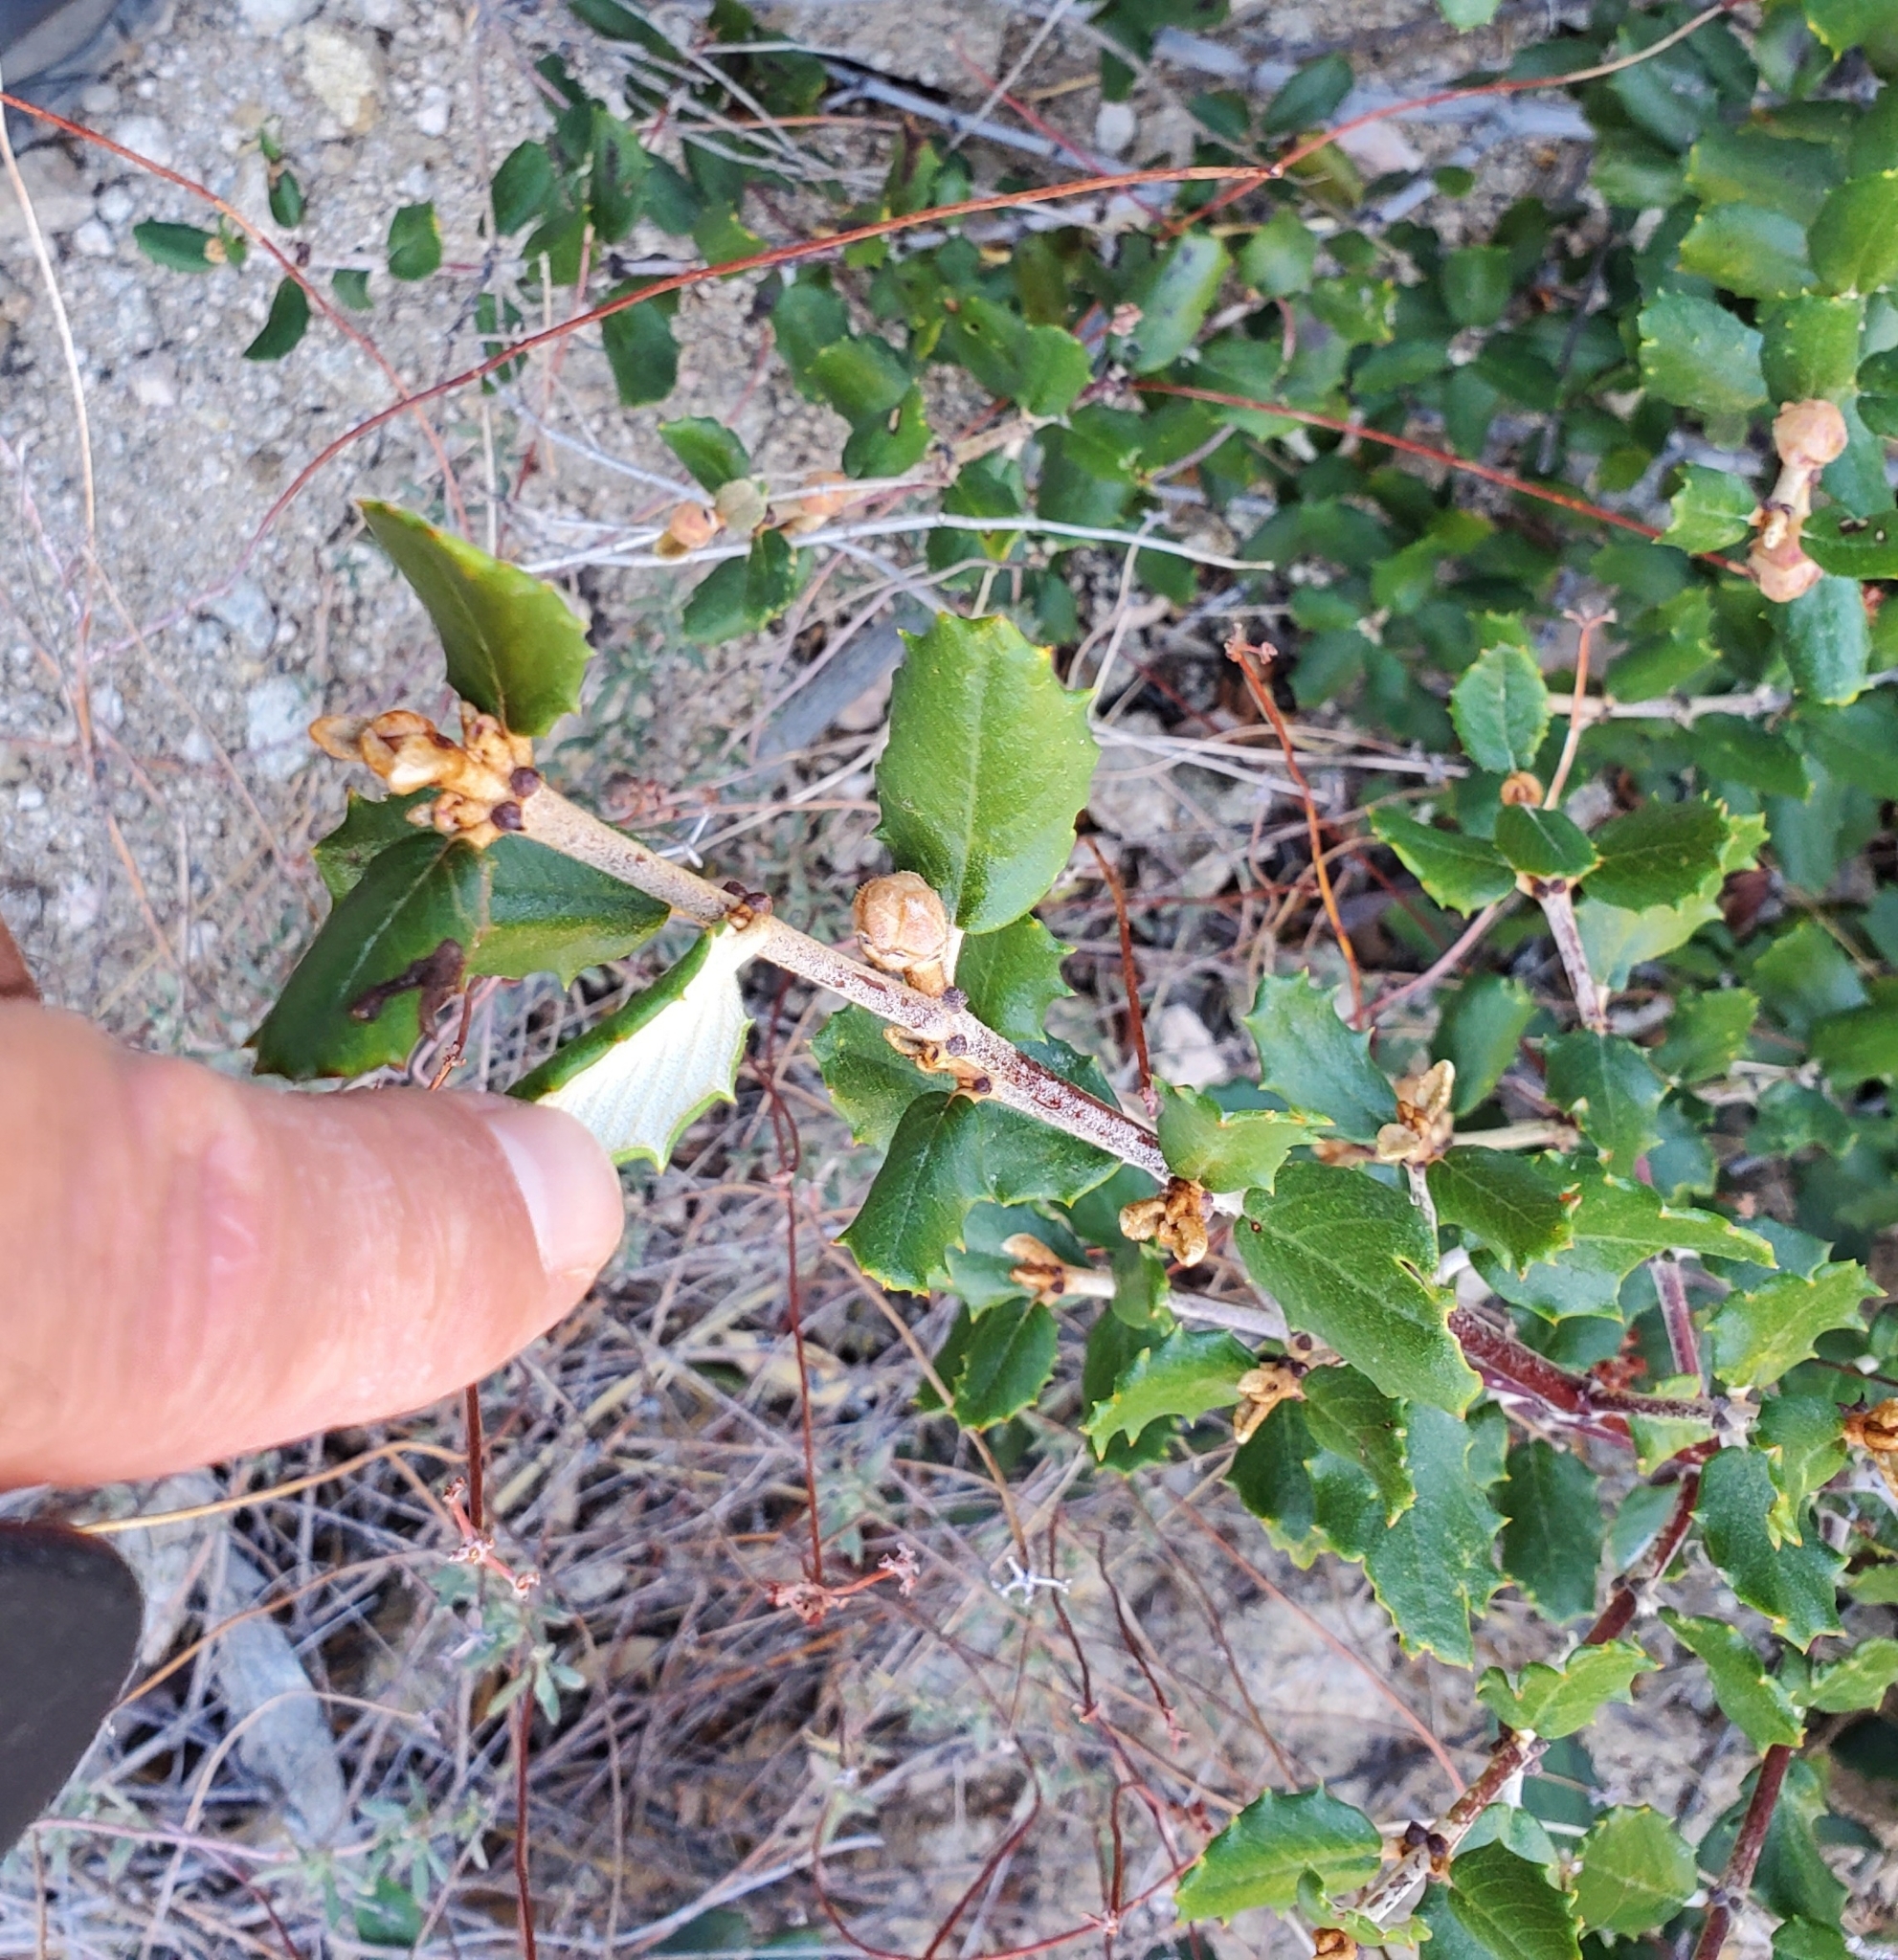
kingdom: Plantae
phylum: Tracheophyta
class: Magnoliopsida
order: Rosales
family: Rhamnaceae
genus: Ceanothus
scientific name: Ceanothus crassifolius
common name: Hoaryleaf ceanothus
